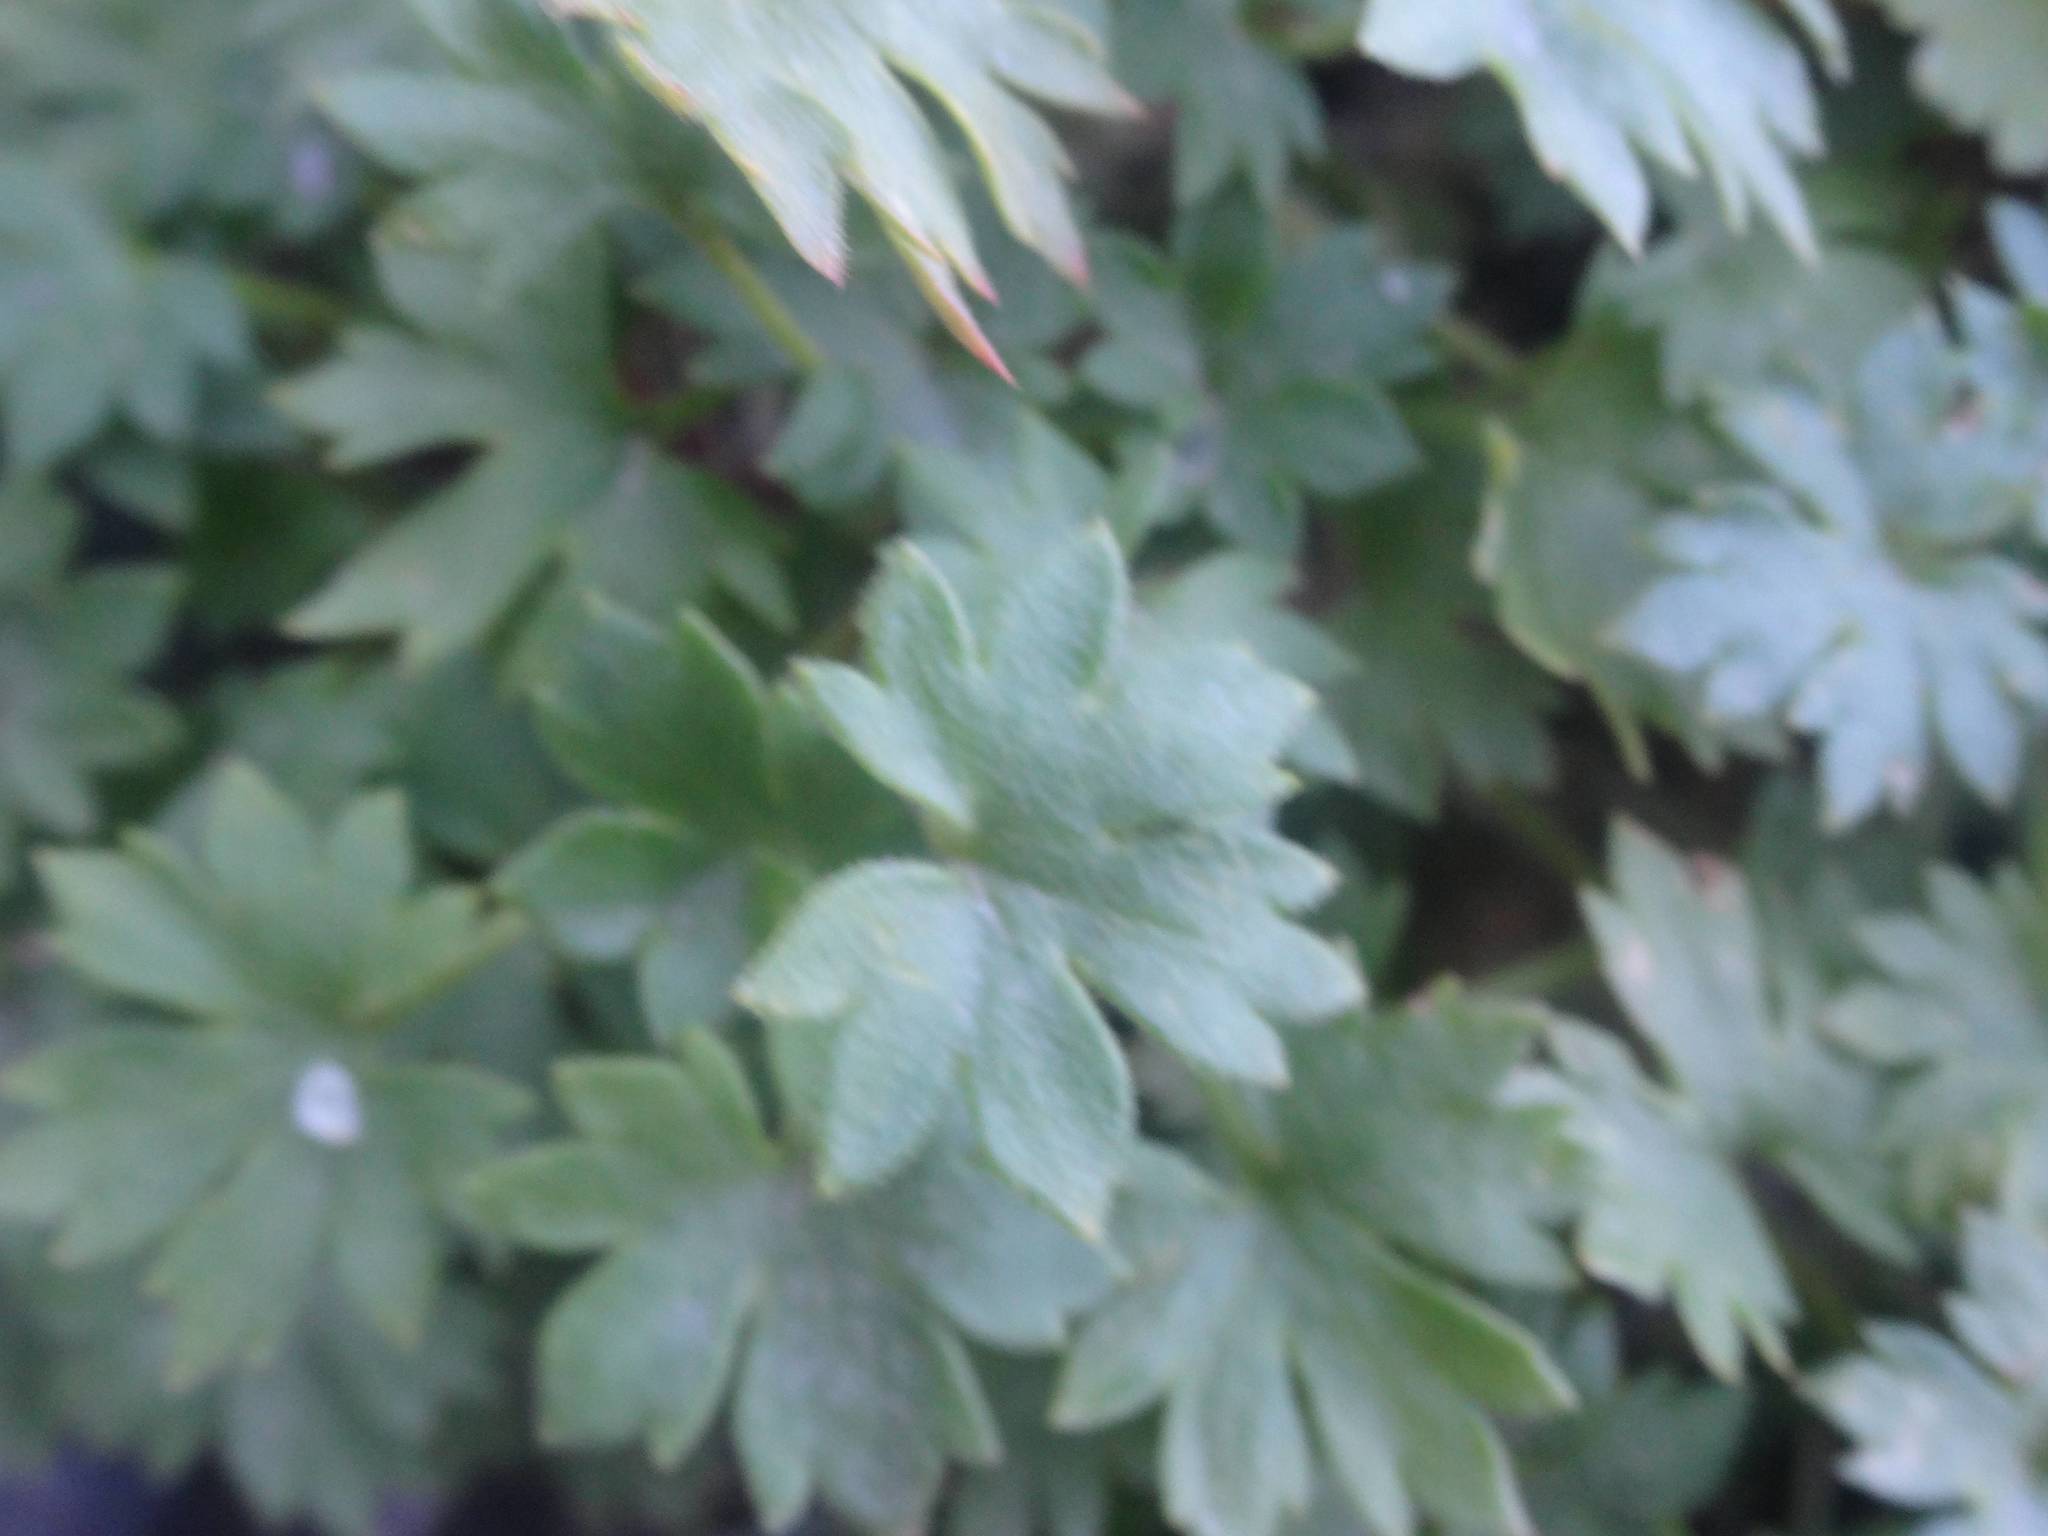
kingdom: Plantae
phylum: Tracheophyta
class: Magnoliopsida
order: Saxifragales
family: Saxifragaceae
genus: Saxifraga
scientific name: Saxifraga geranioides
